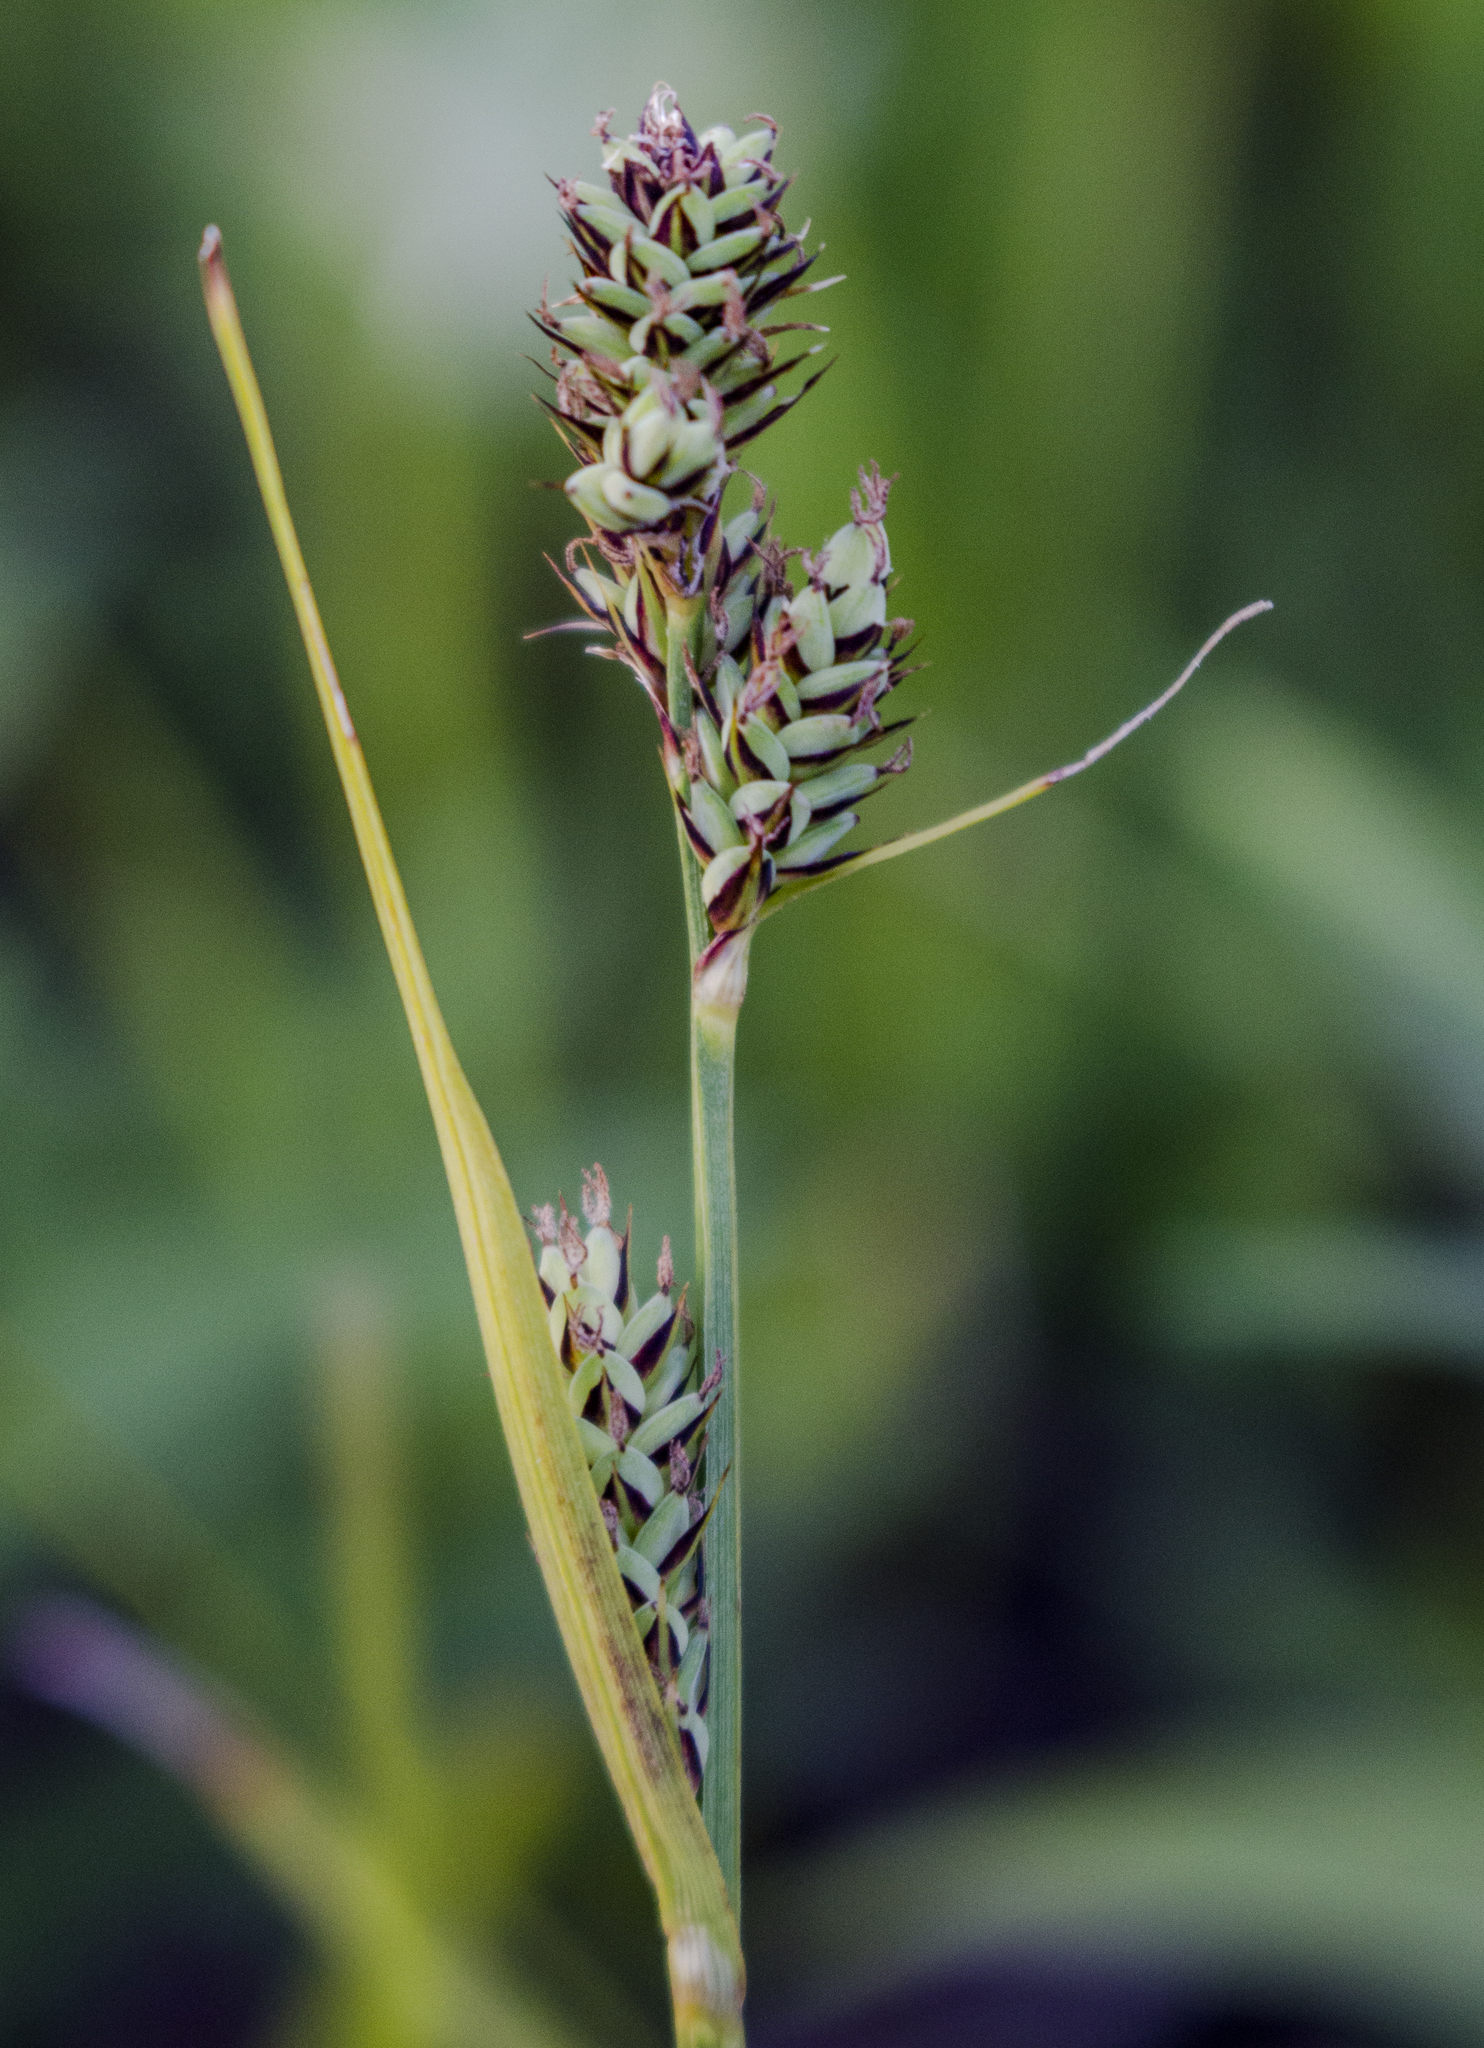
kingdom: Plantae
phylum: Tracheophyta
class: Liliopsida
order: Poales
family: Cyperaceae
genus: Carex
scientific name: Carex buxbaumii
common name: Club sedge
